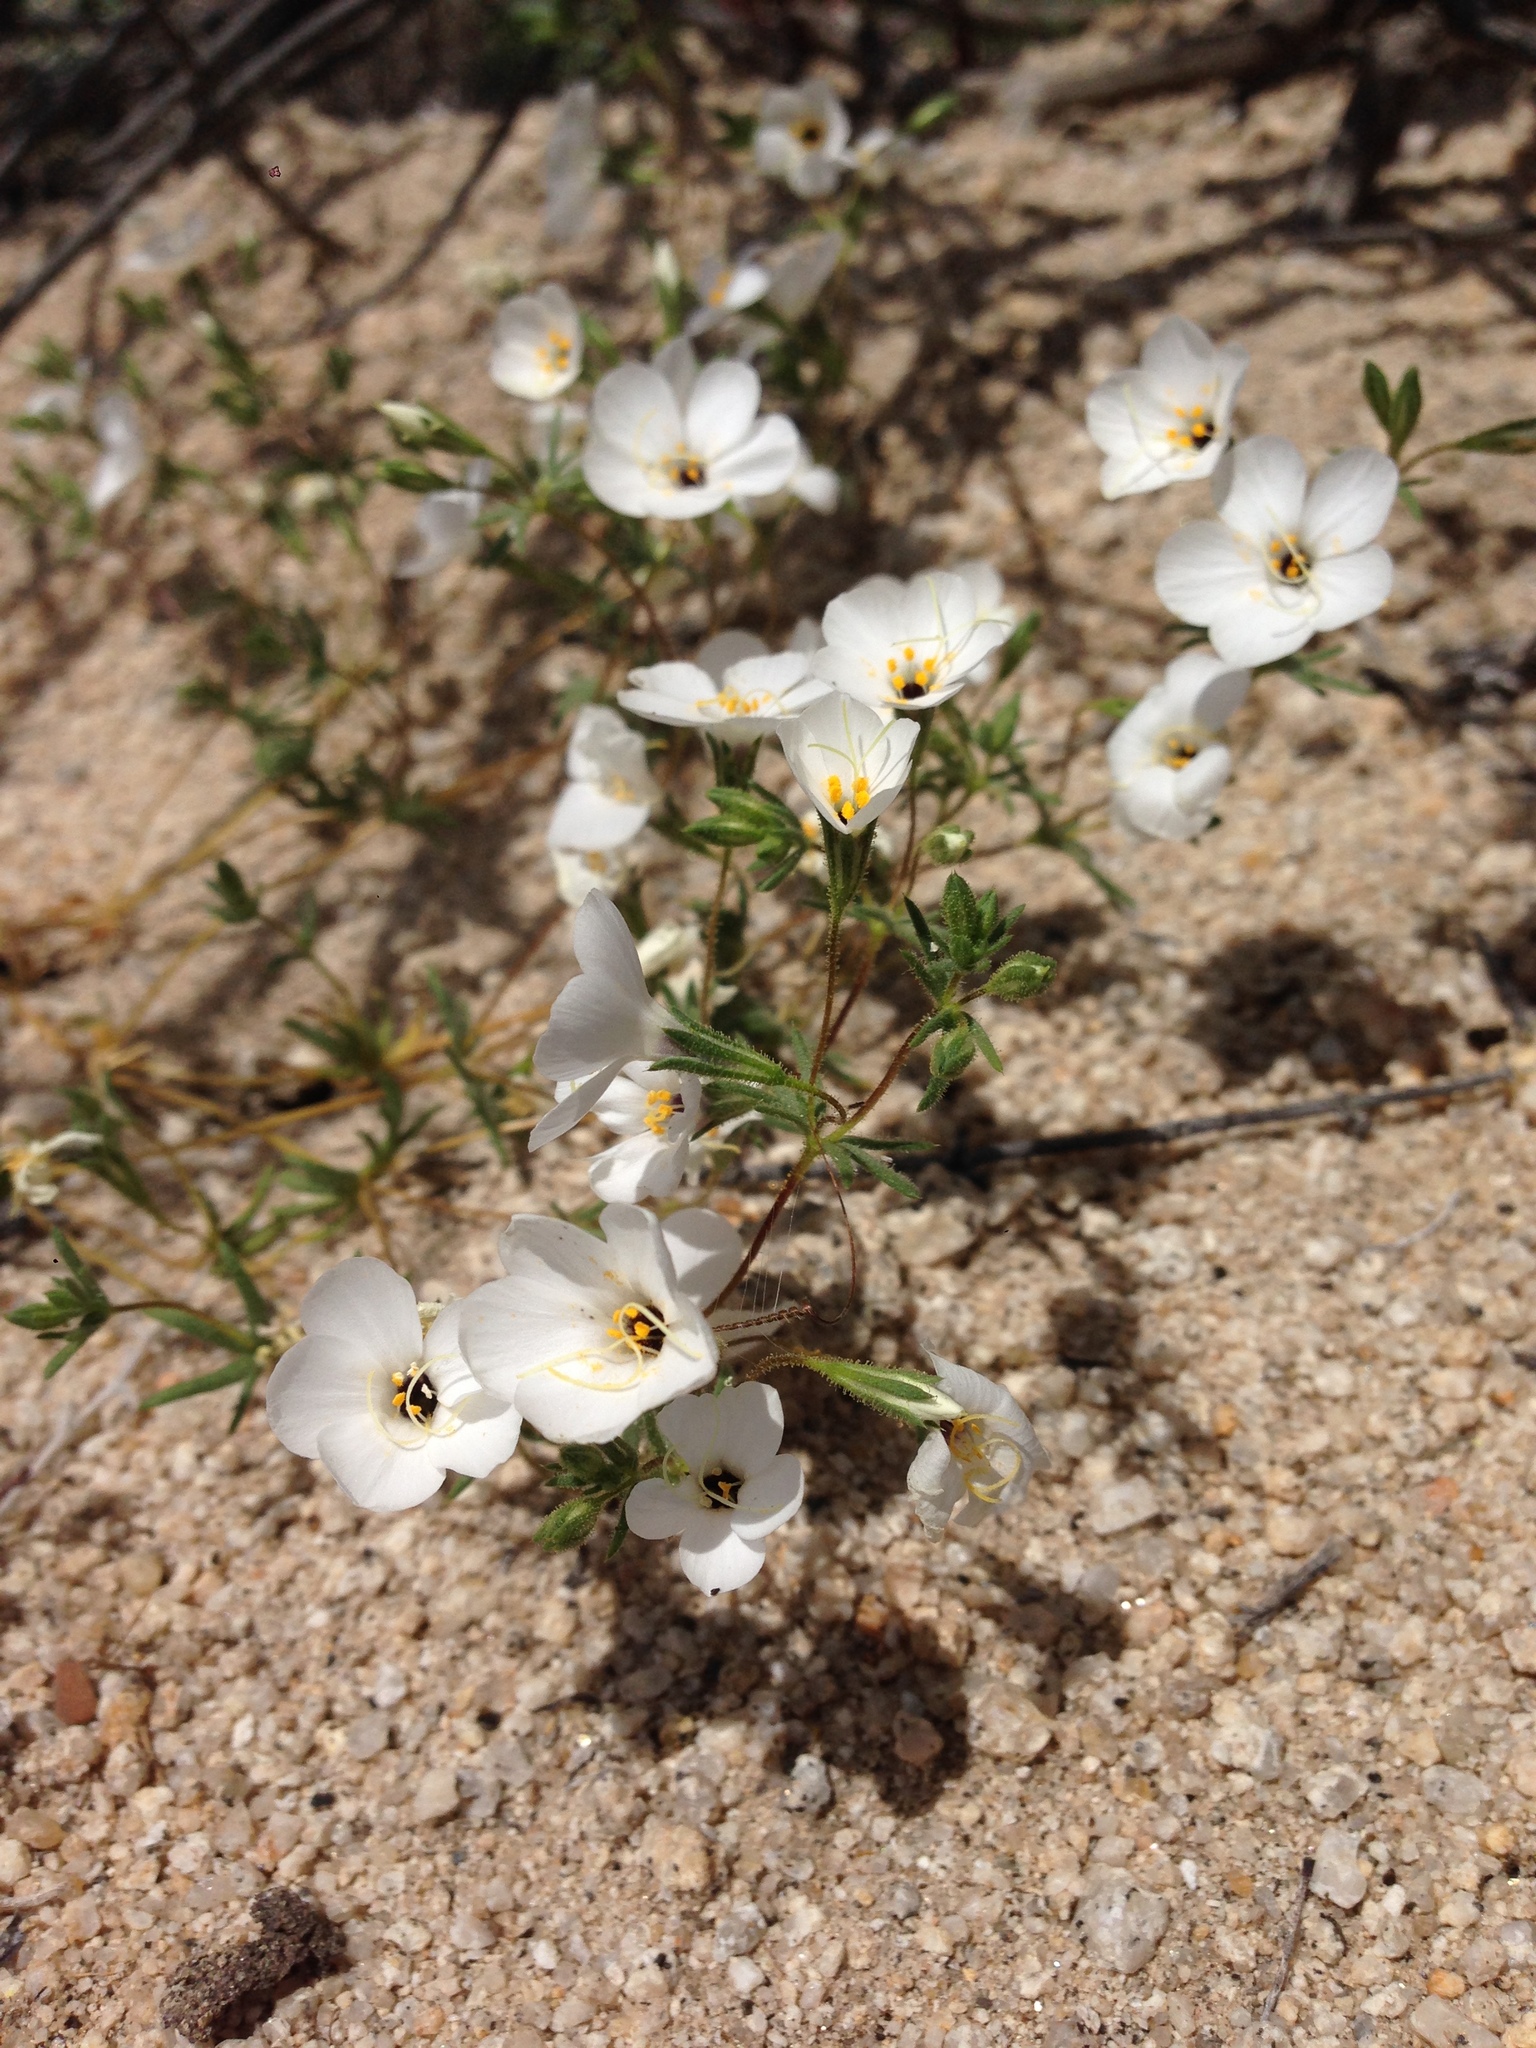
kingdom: Plantae
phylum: Tracheophyta
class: Magnoliopsida
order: Ericales
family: Polemoniaceae
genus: Leptosiphon
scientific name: Leptosiphon chrysanthus
